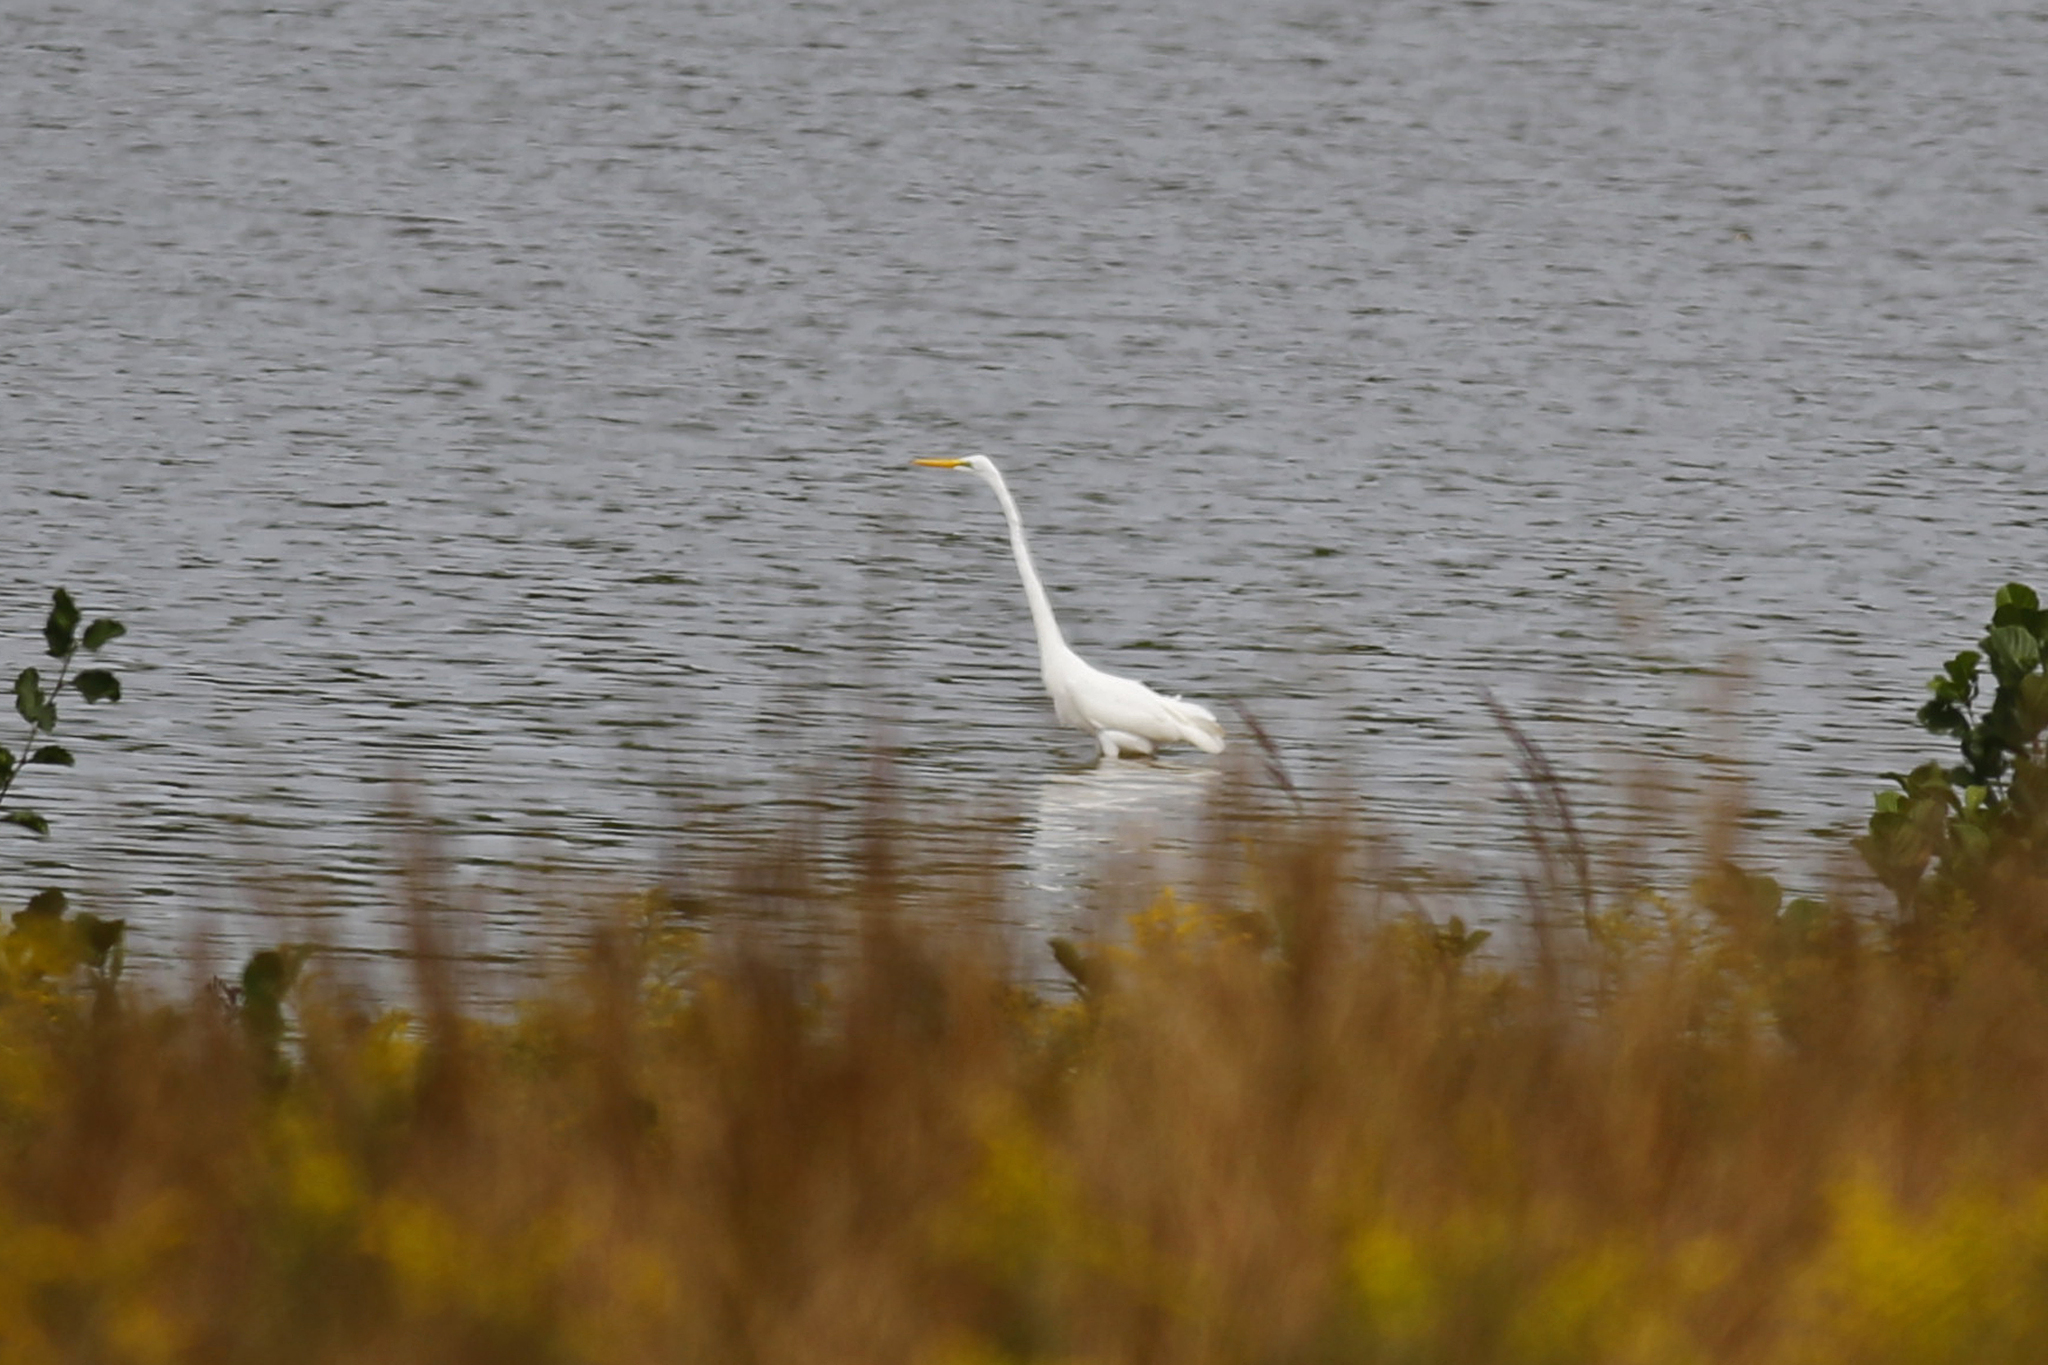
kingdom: Animalia
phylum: Chordata
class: Aves
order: Pelecaniformes
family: Ardeidae
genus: Ardea
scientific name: Ardea alba
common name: Great egret
